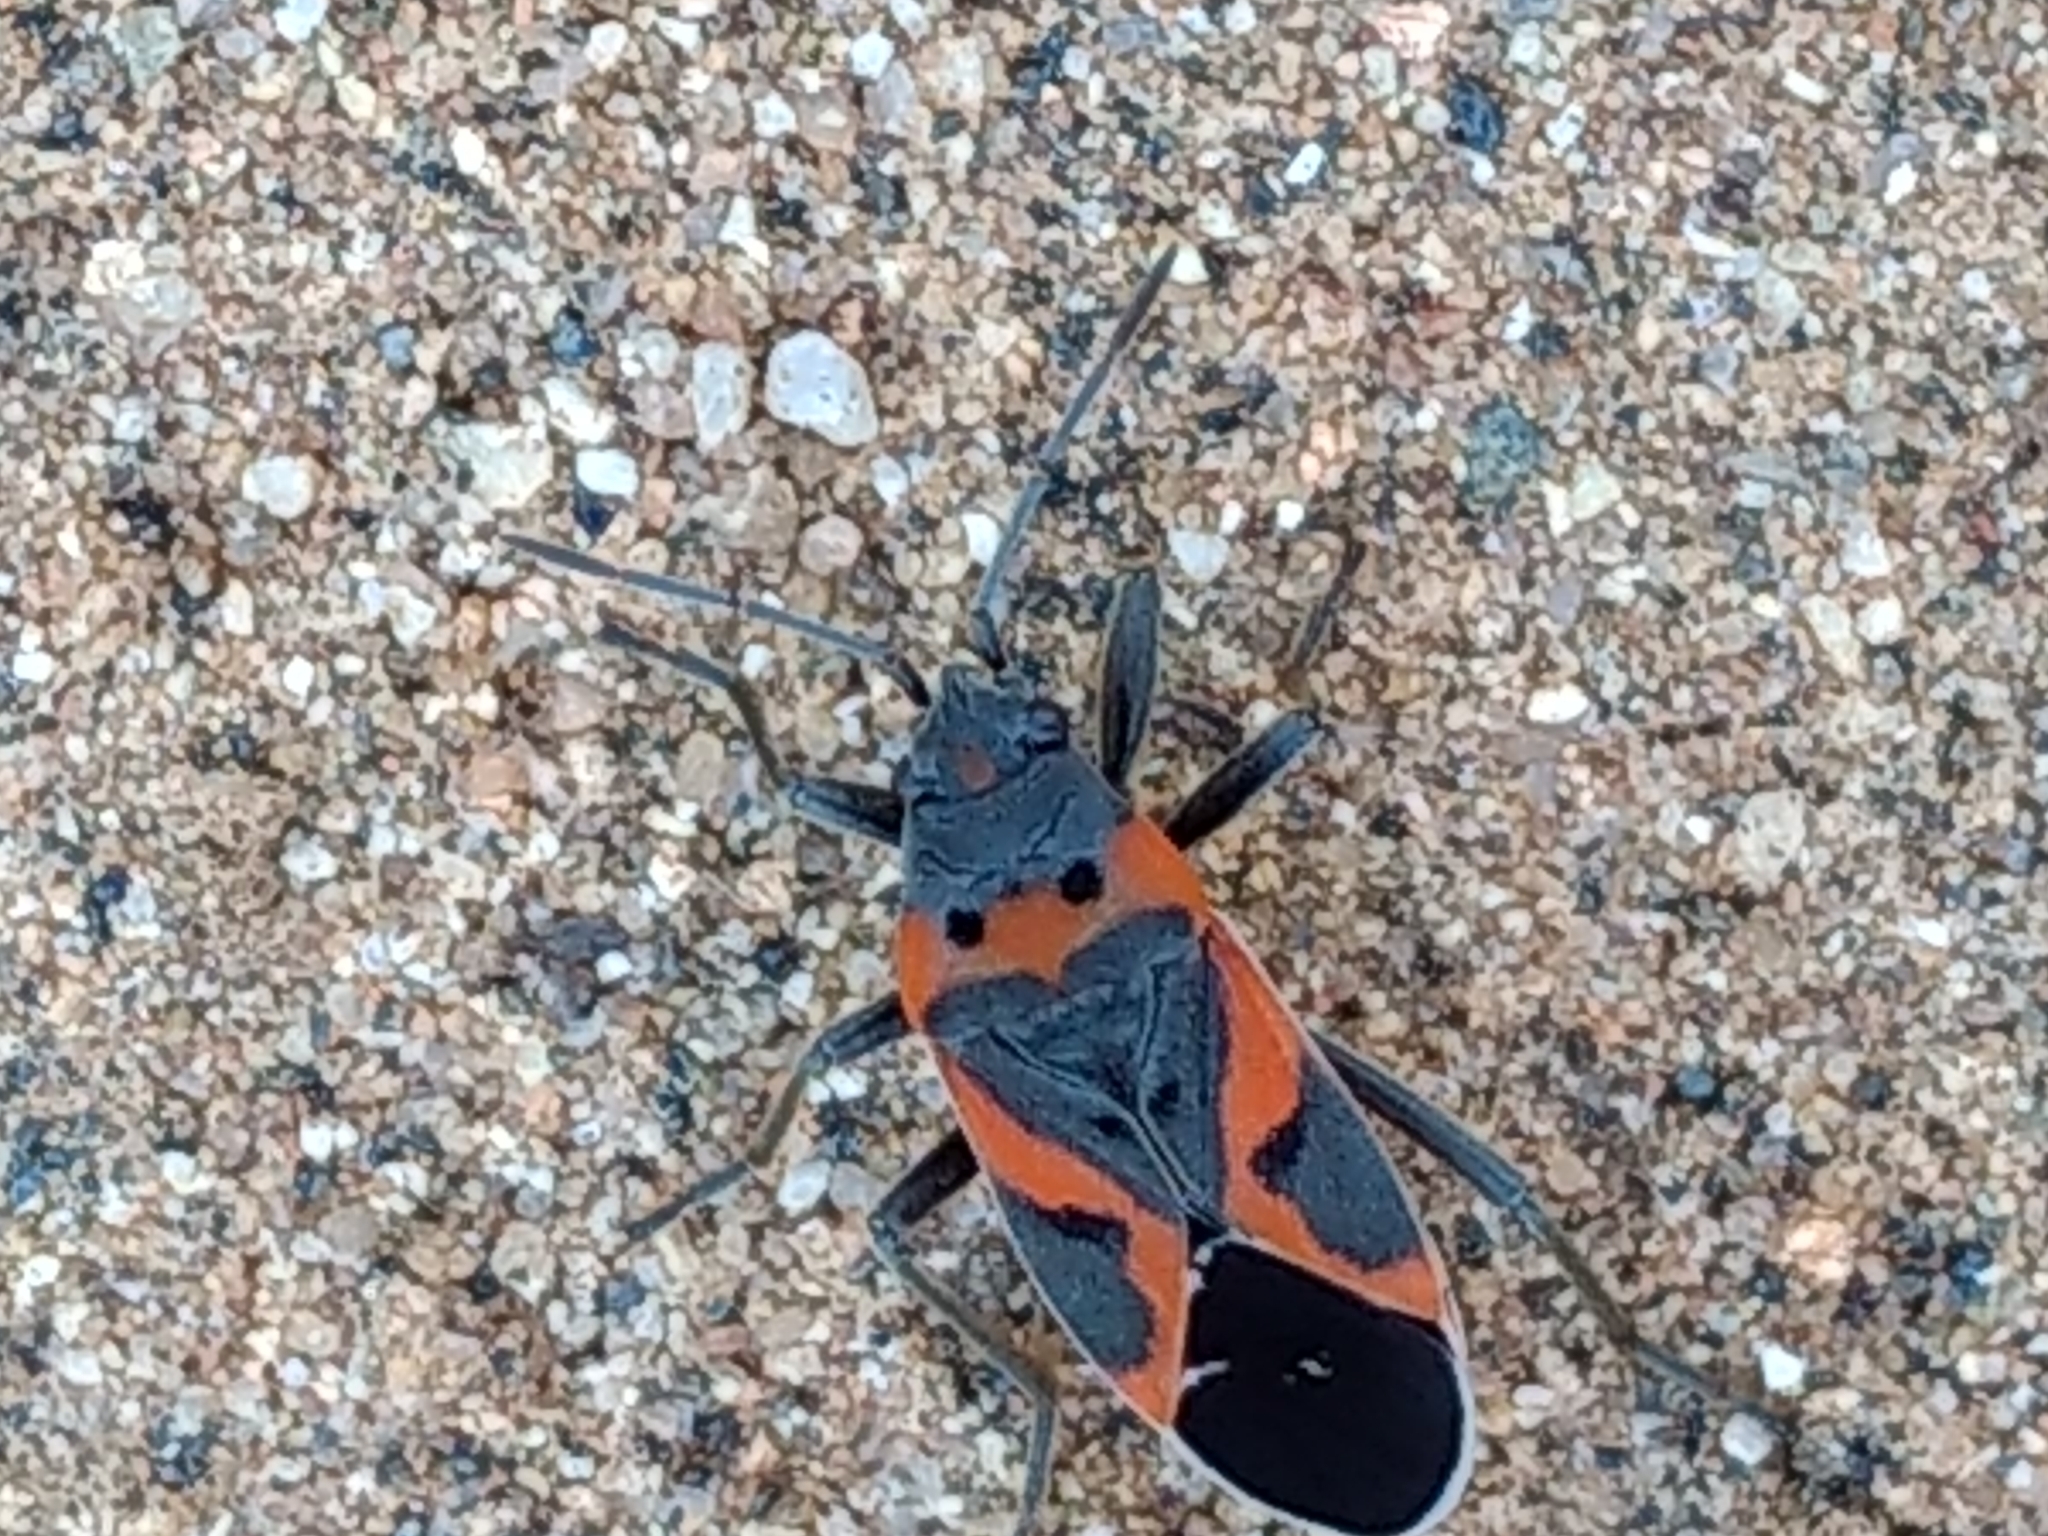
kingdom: Animalia
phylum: Arthropoda
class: Insecta
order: Hemiptera
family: Lygaeidae
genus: Lygaeus
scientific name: Lygaeus kalmii
